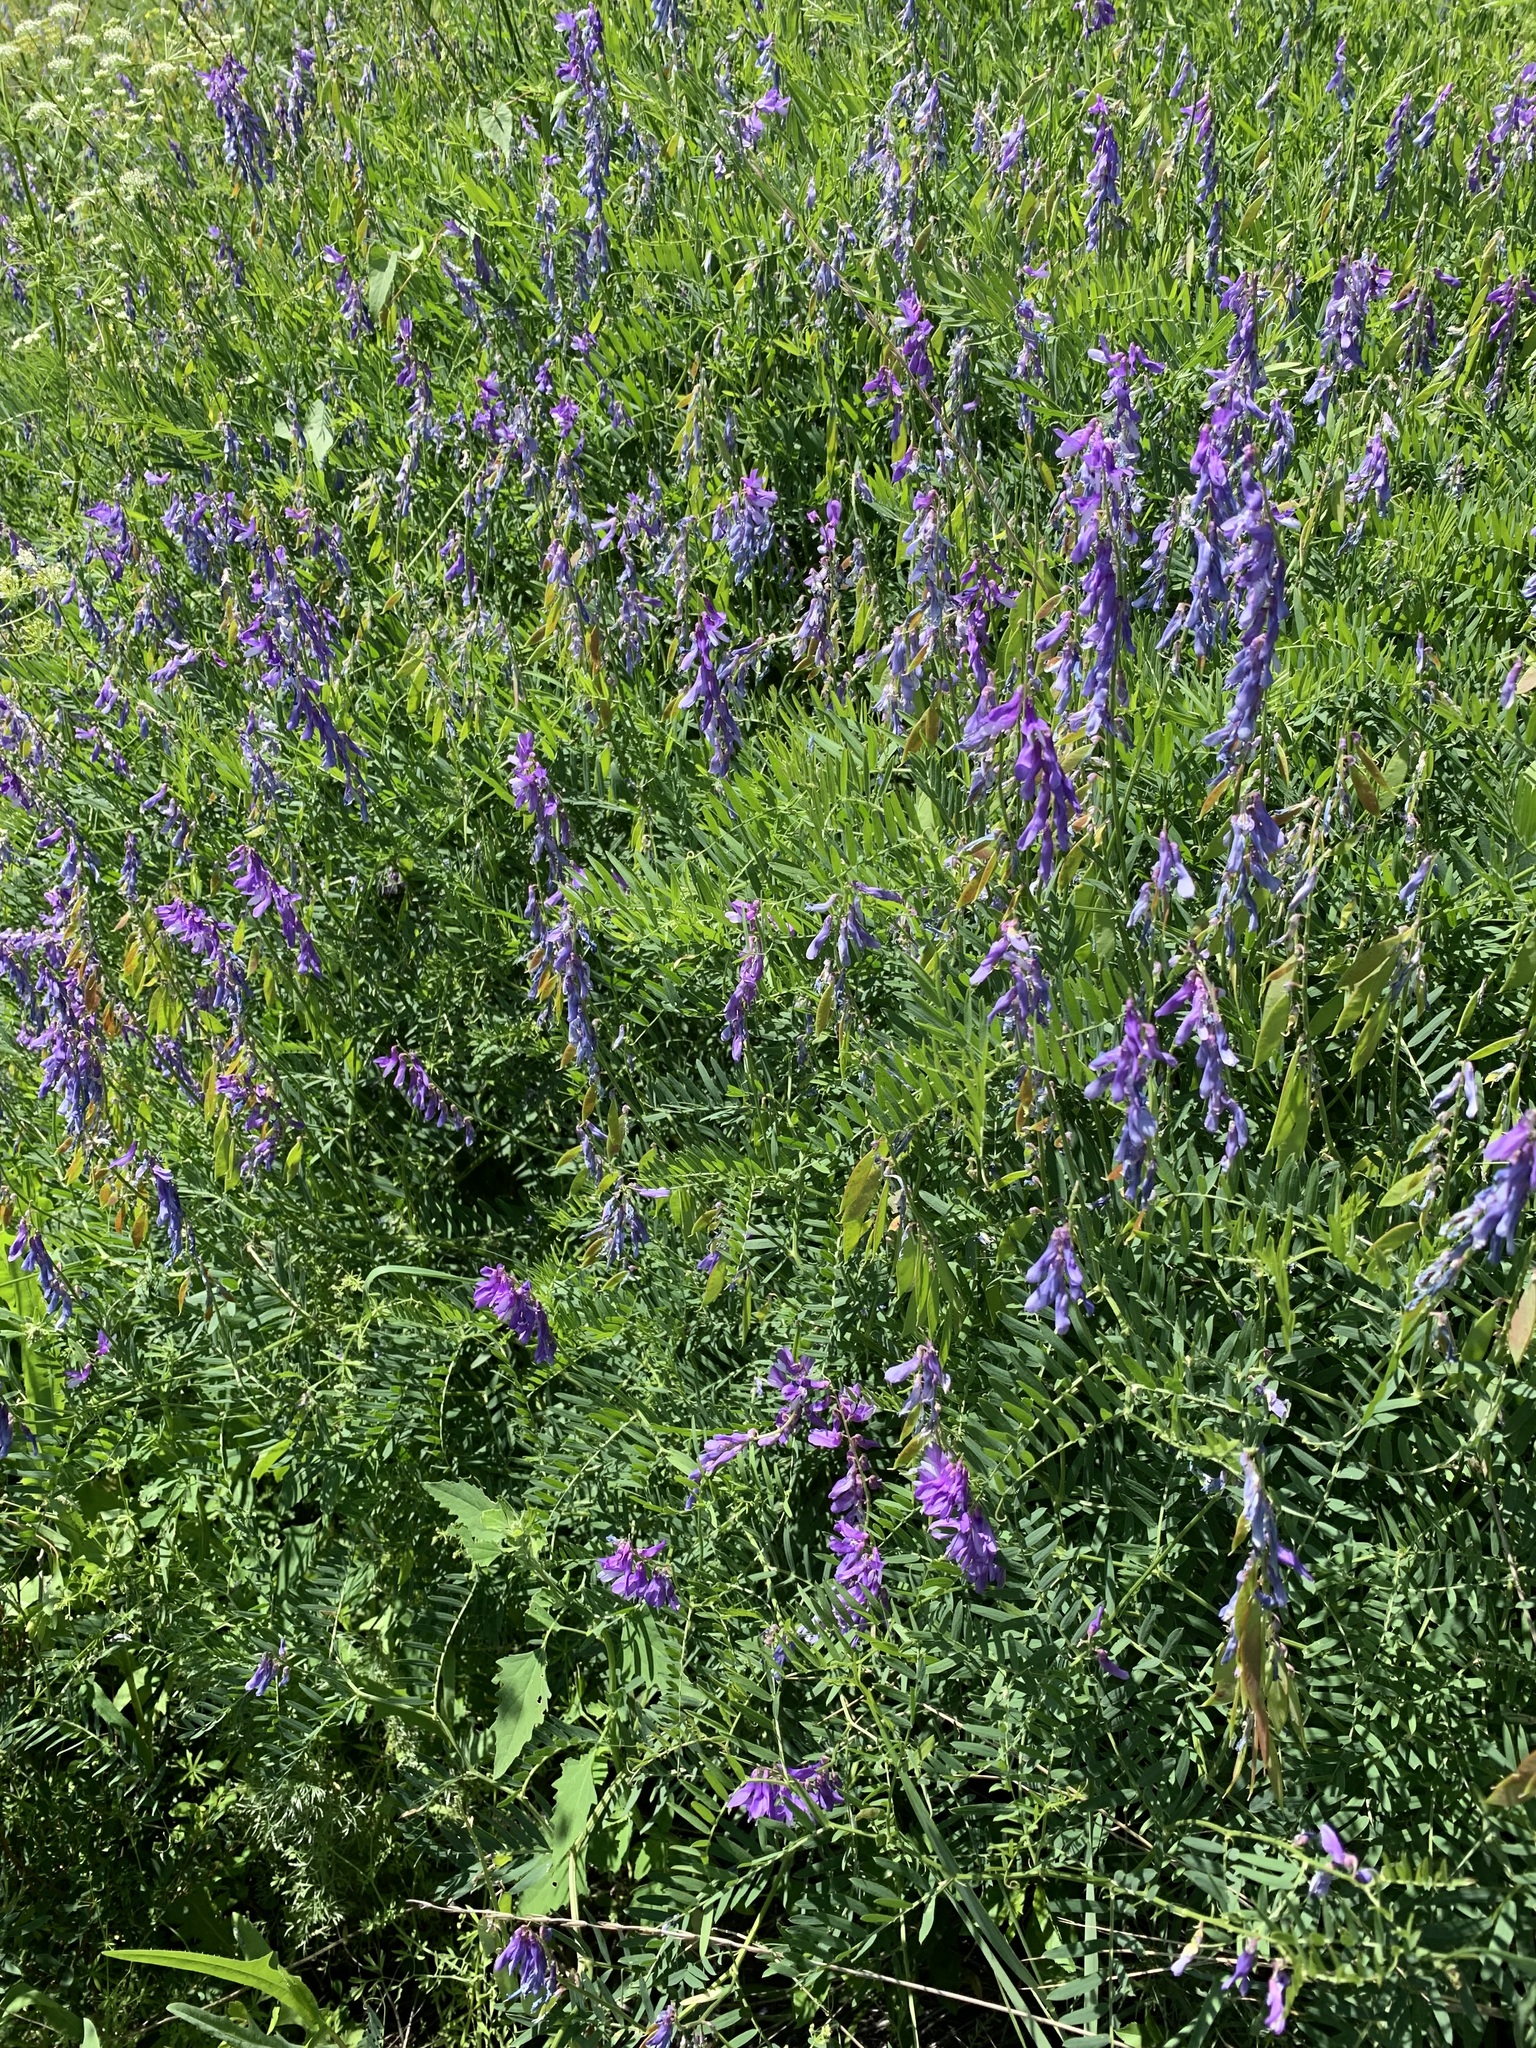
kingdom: Plantae
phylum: Tracheophyta
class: Magnoliopsida
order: Fabales
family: Fabaceae
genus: Vicia
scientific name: Vicia tenuifolia
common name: Fine-leaved vetch
